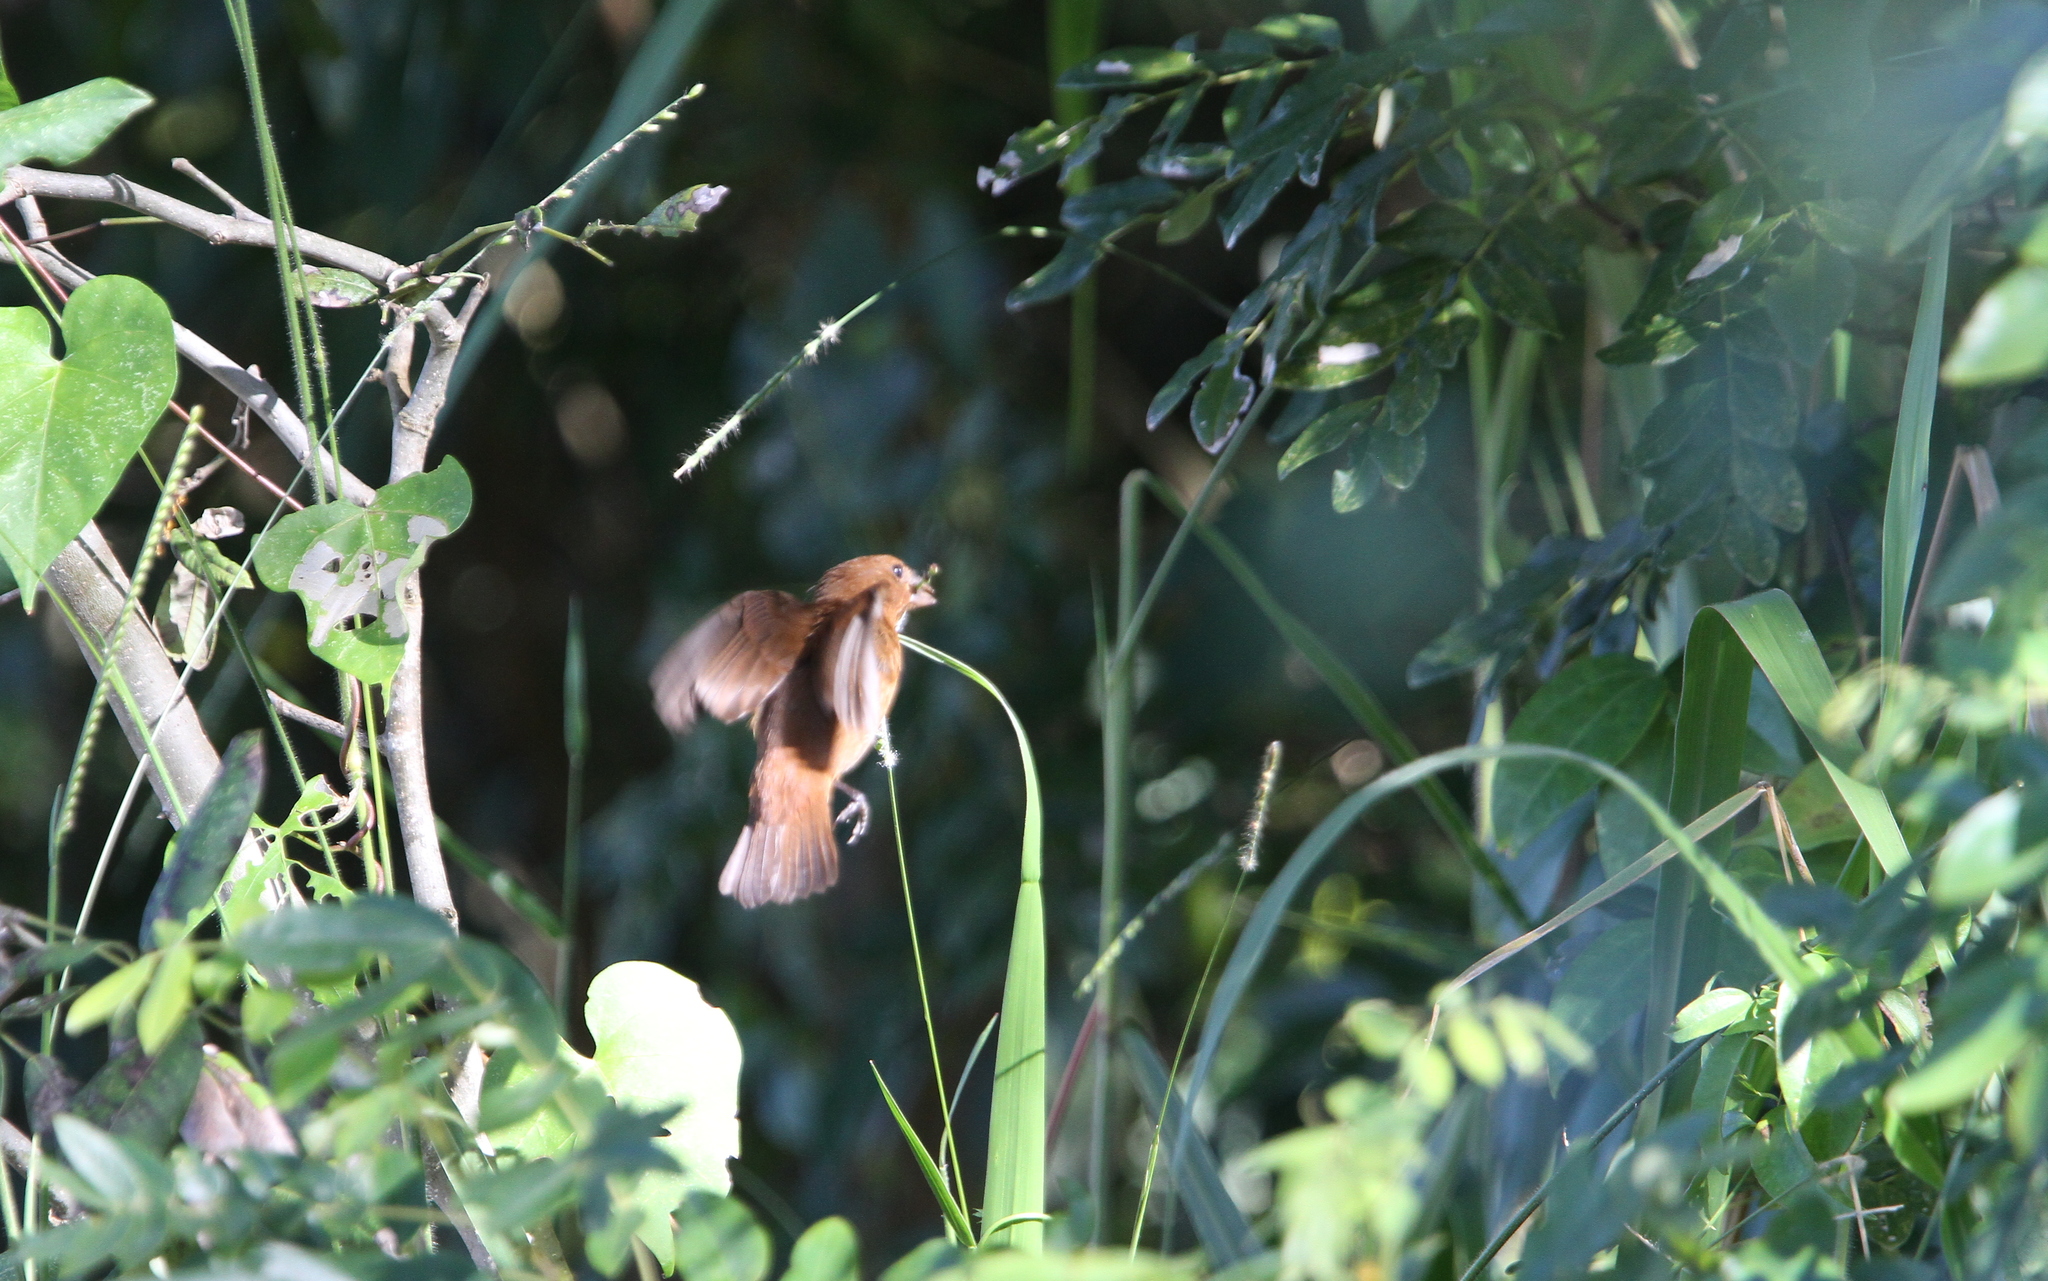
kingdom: Animalia
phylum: Chordata
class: Aves
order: Passeriformes
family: Cardinalidae
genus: Cyanocompsa
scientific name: Cyanocompsa parellina
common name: Blue bunting
